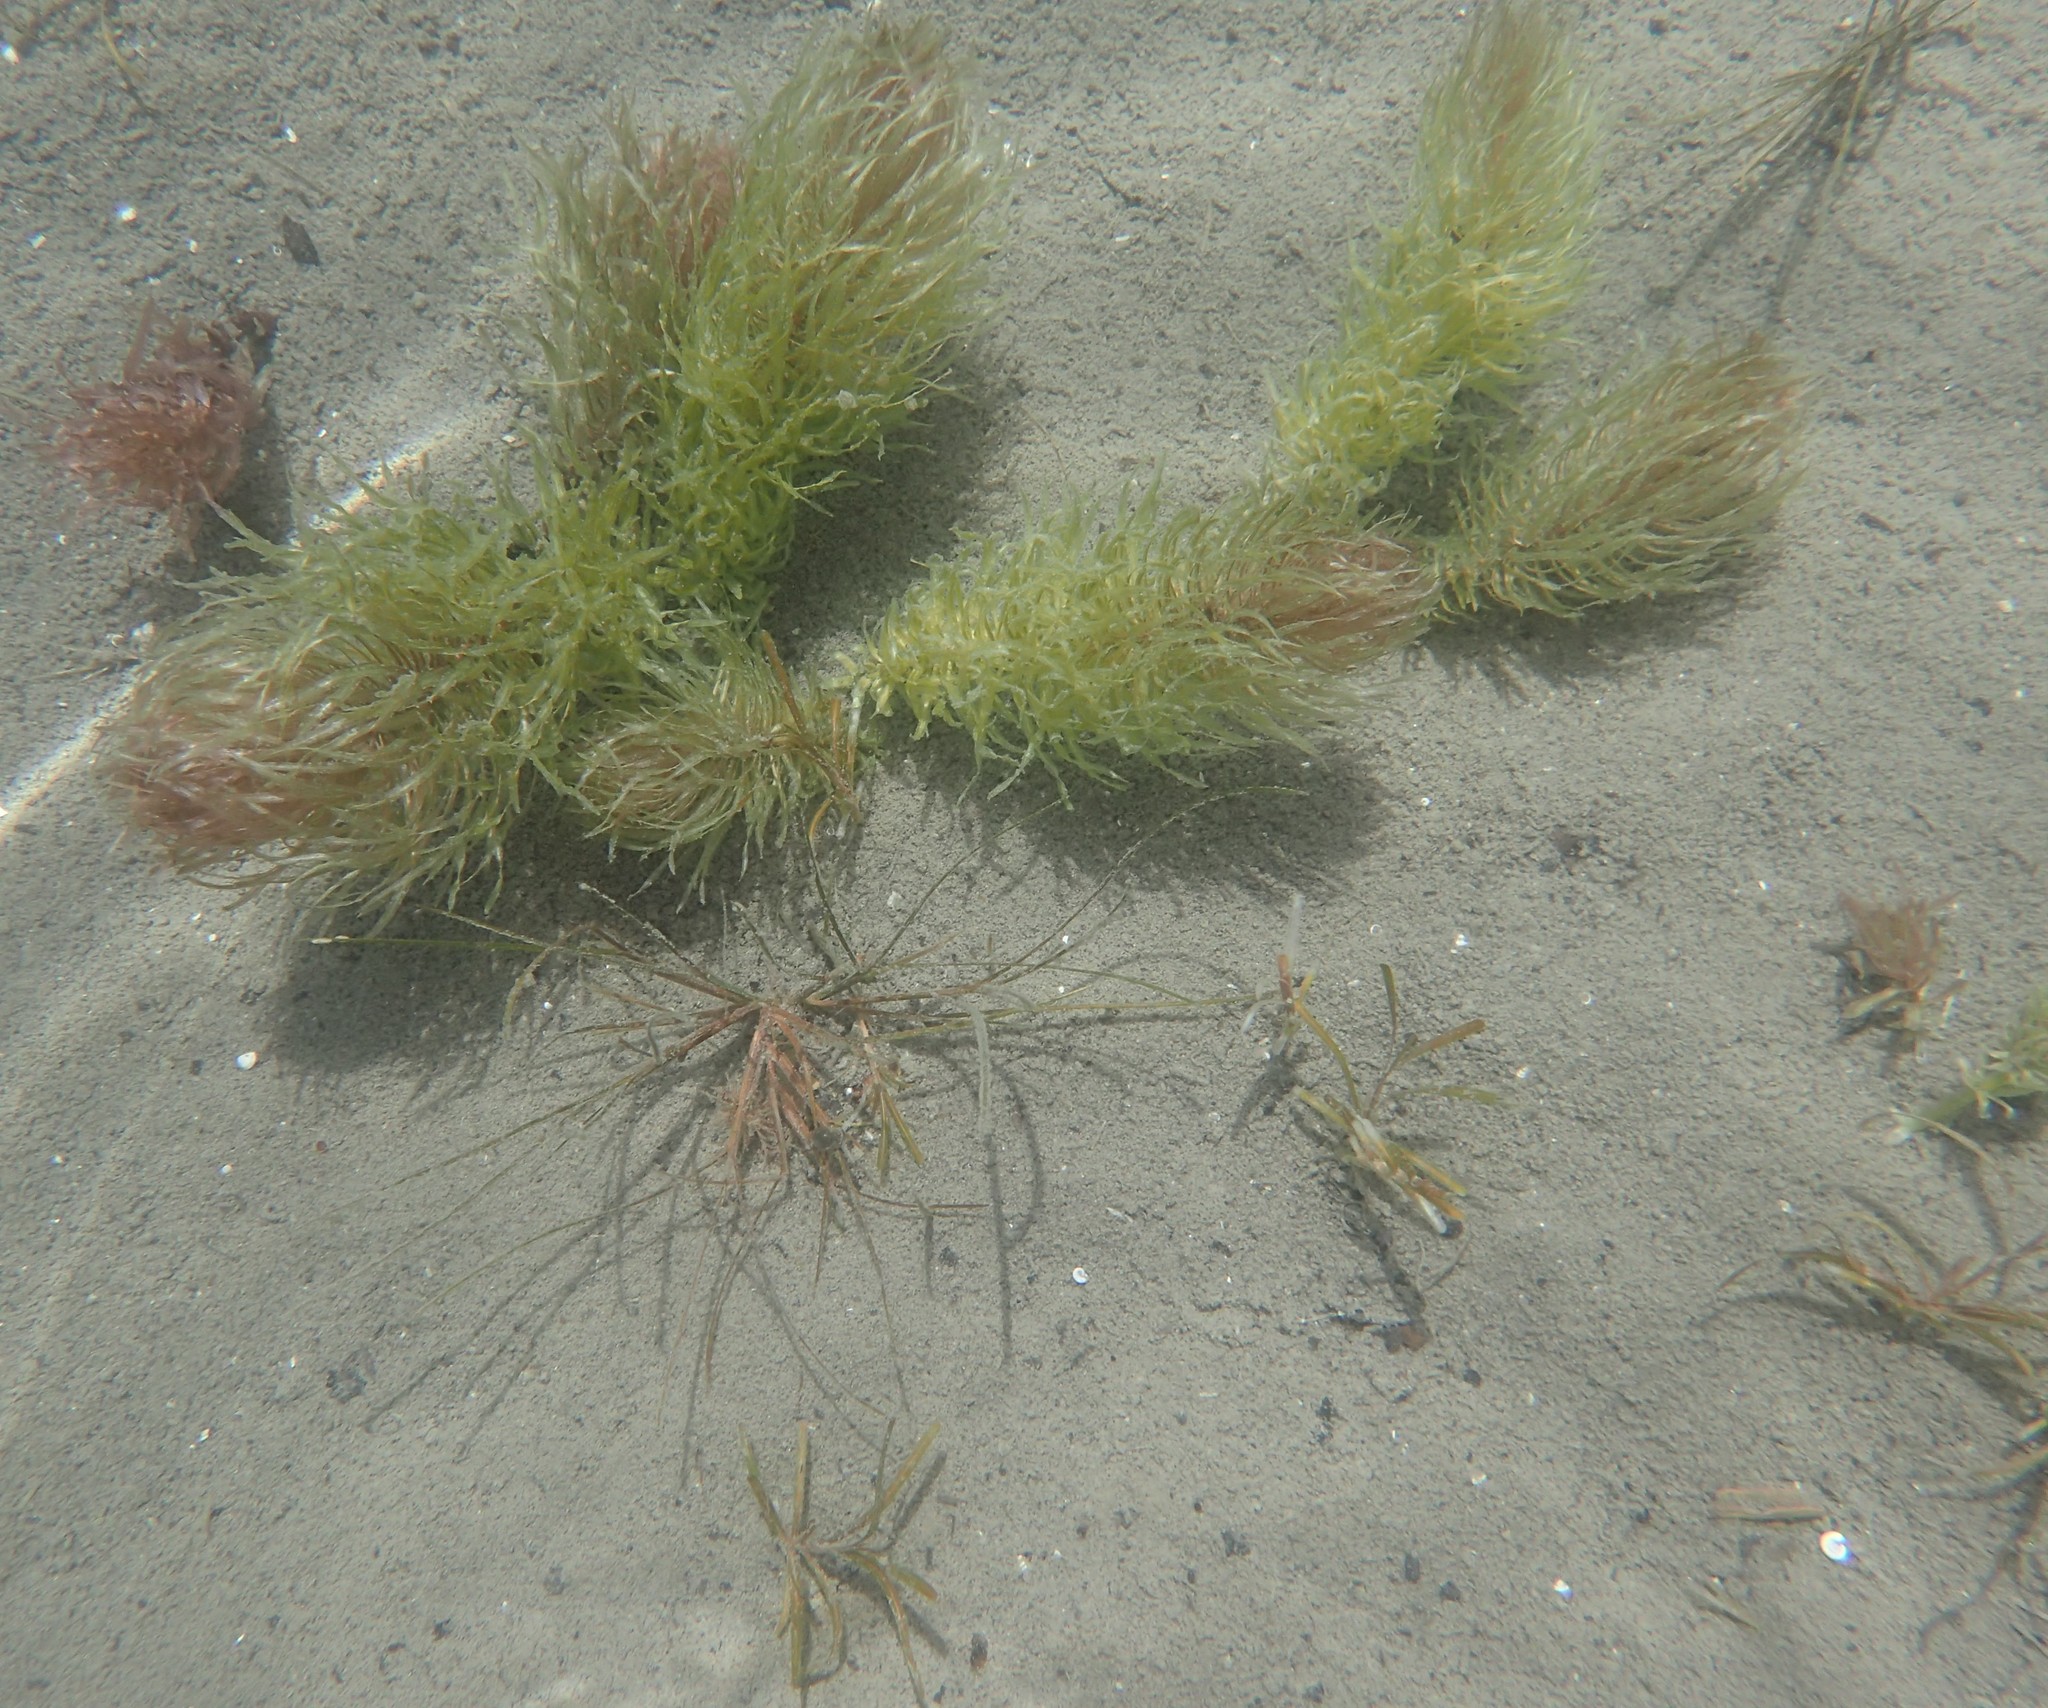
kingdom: Plantae
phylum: Tracheophyta
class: Magnoliopsida
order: Lamiales
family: Plantaginaceae
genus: Hippuris
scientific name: Hippuris vulgaris
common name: Mare's-tail
